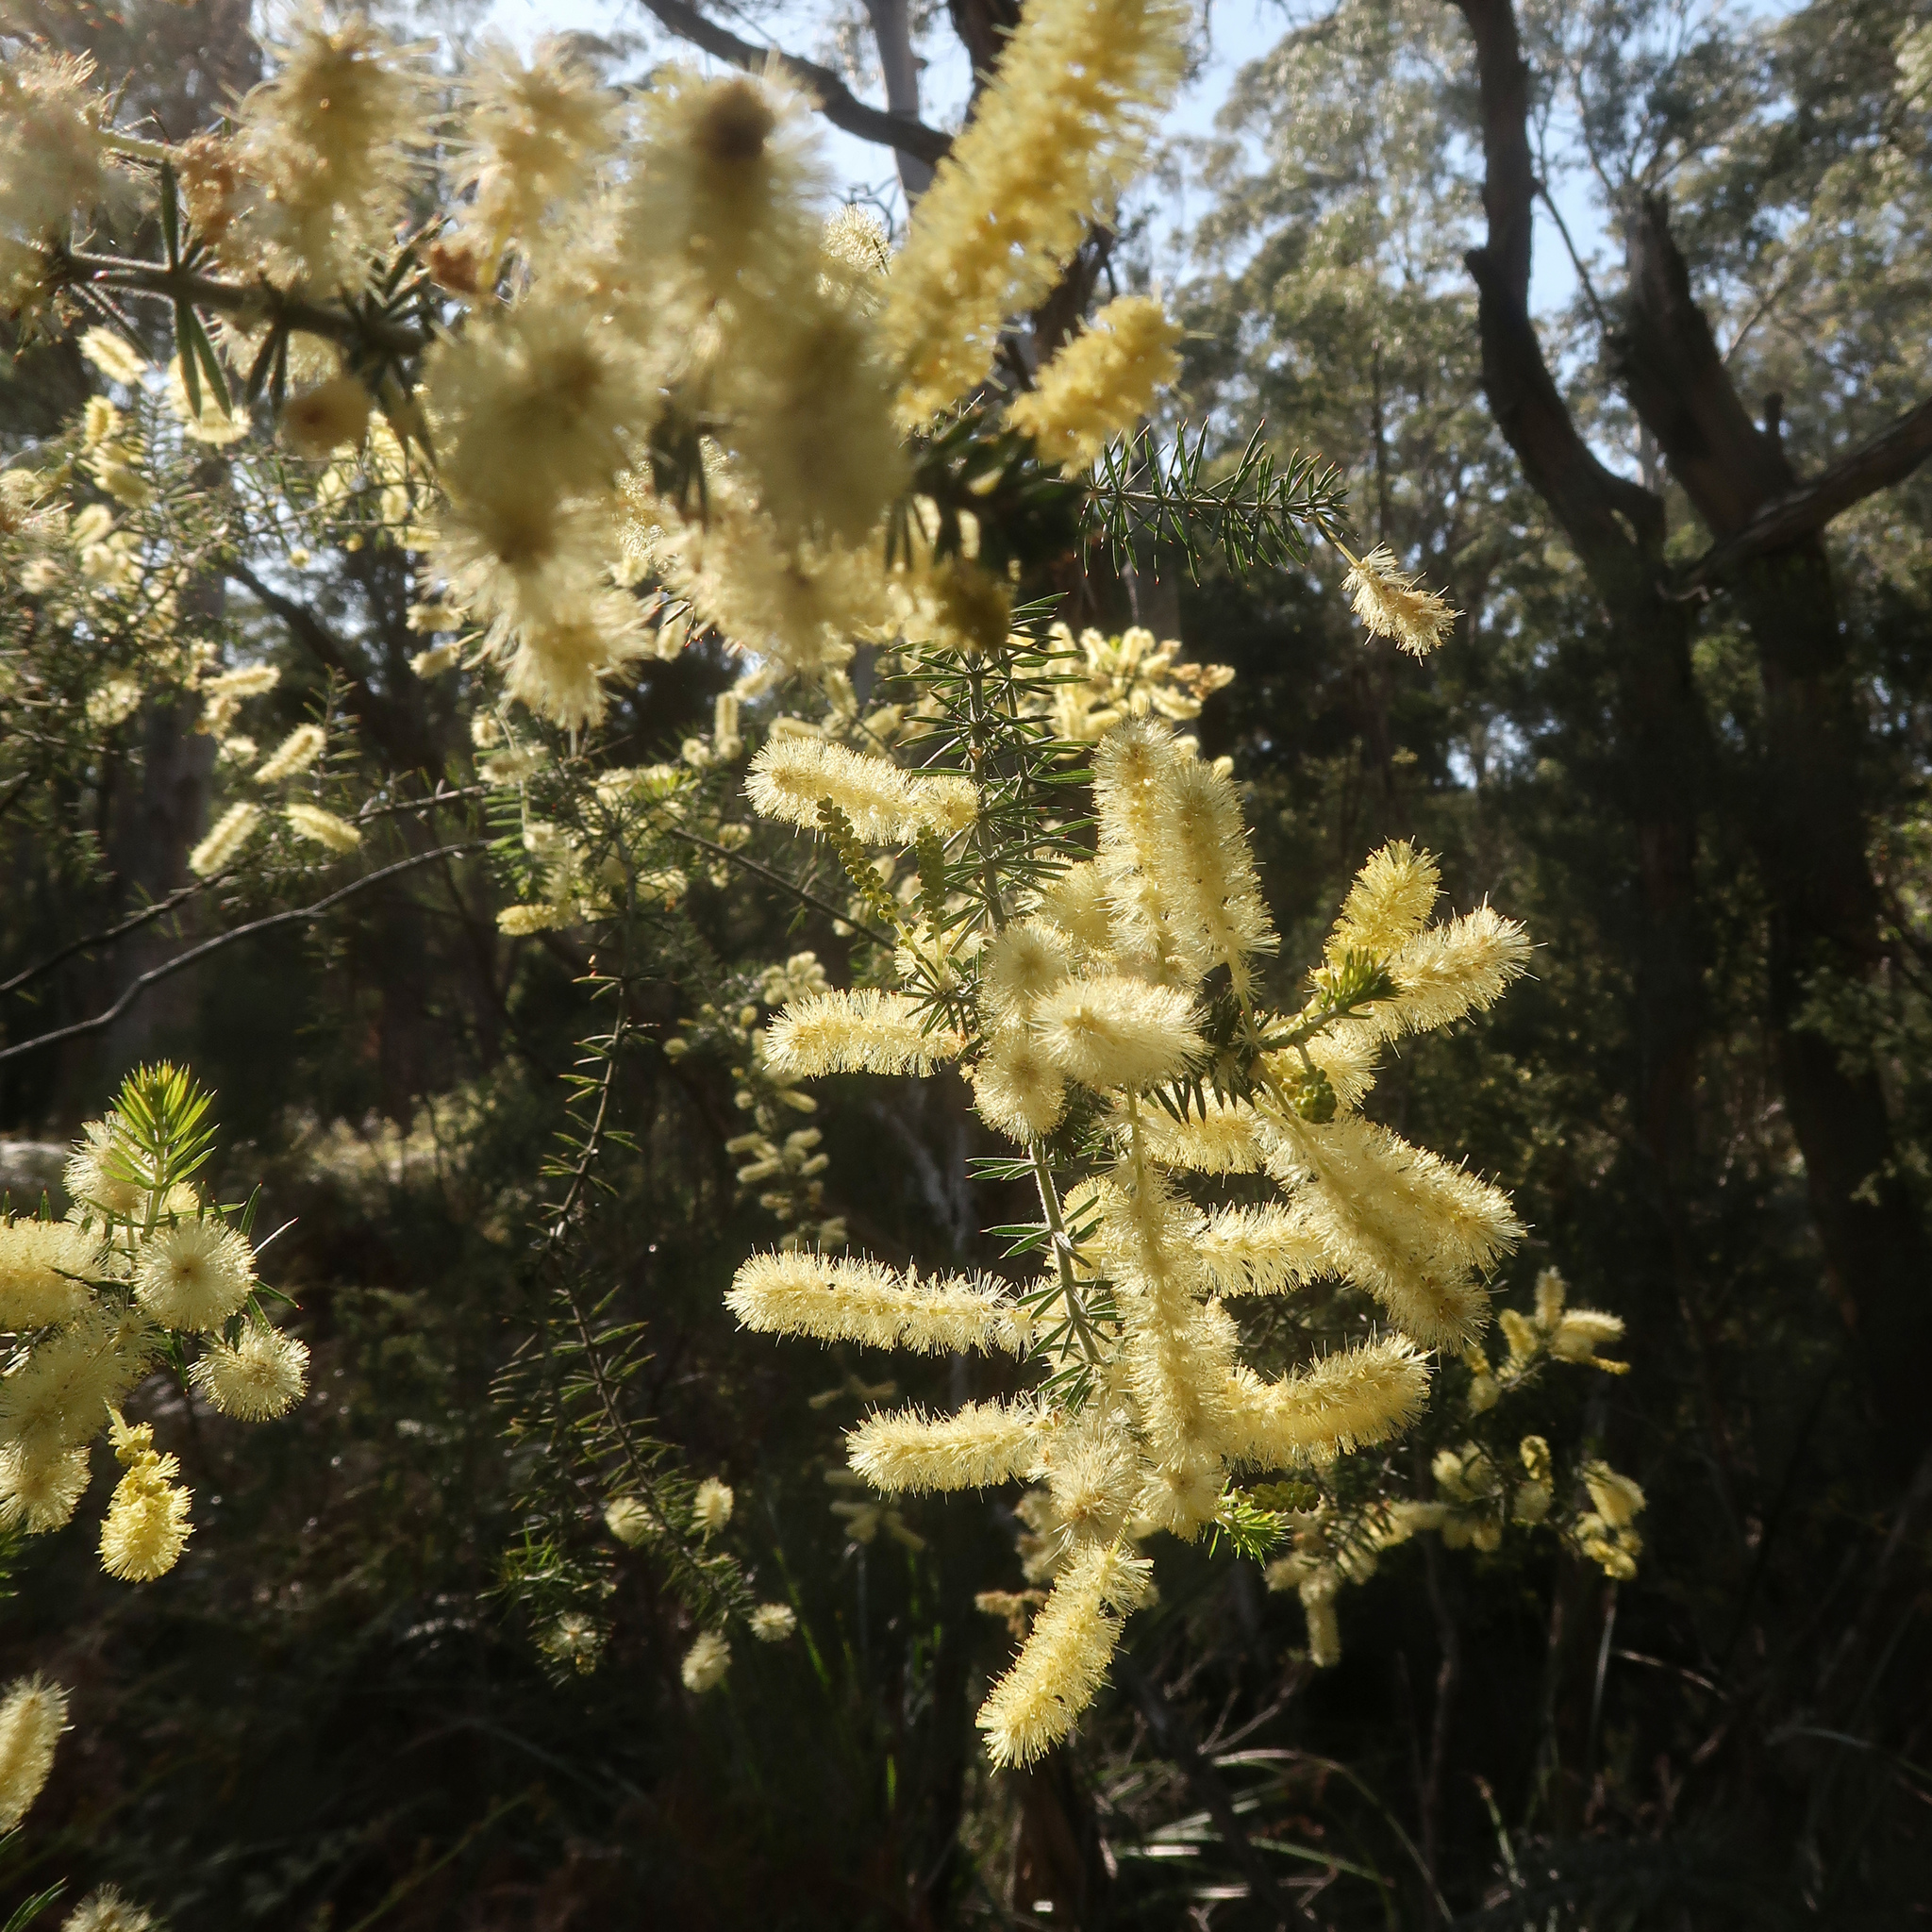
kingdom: Plantae
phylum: Tracheophyta
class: Magnoliopsida
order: Fabales
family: Fabaceae
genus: Acacia
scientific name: Acacia verticillata
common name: Prickly moses
